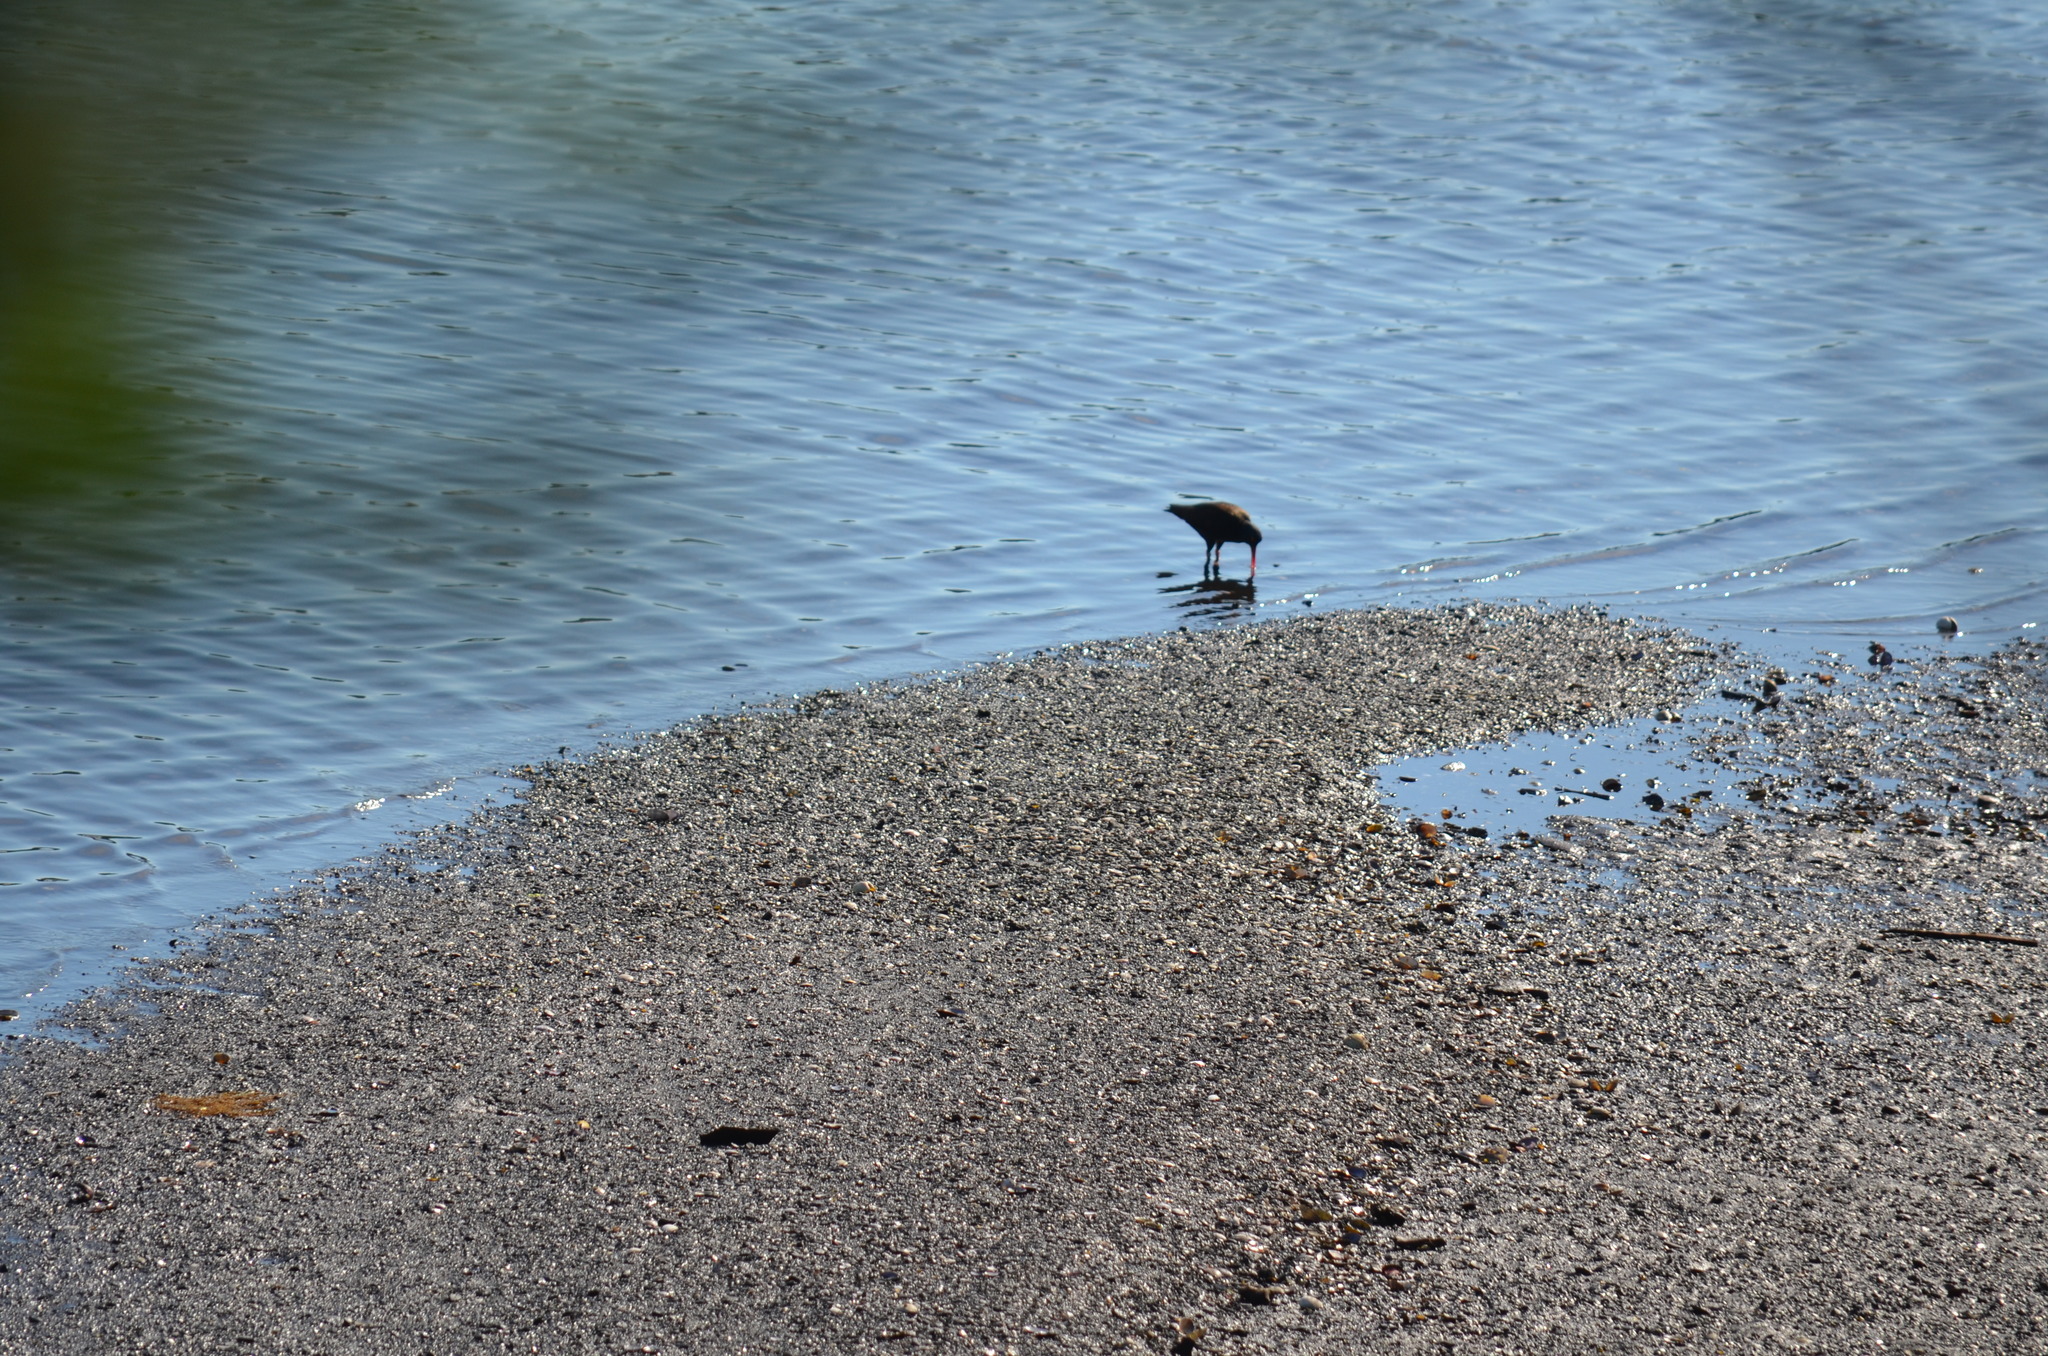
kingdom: Animalia
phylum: Chordata
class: Aves
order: Charadriiformes
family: Haematopodidae
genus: Haematopus
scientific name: Haematopus bachmani
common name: Black oystercatcher
